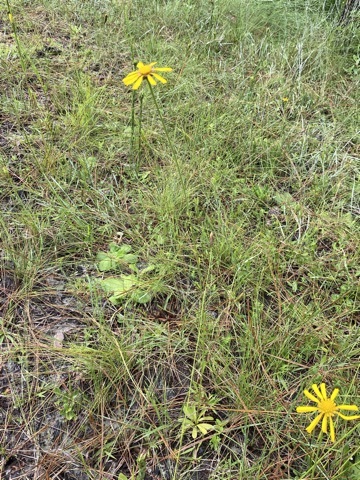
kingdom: Plantae
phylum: Tracheophyta
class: Magnoliopsida
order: Asterales
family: Asteraceae
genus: Balduina
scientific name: Balduina uniflora
